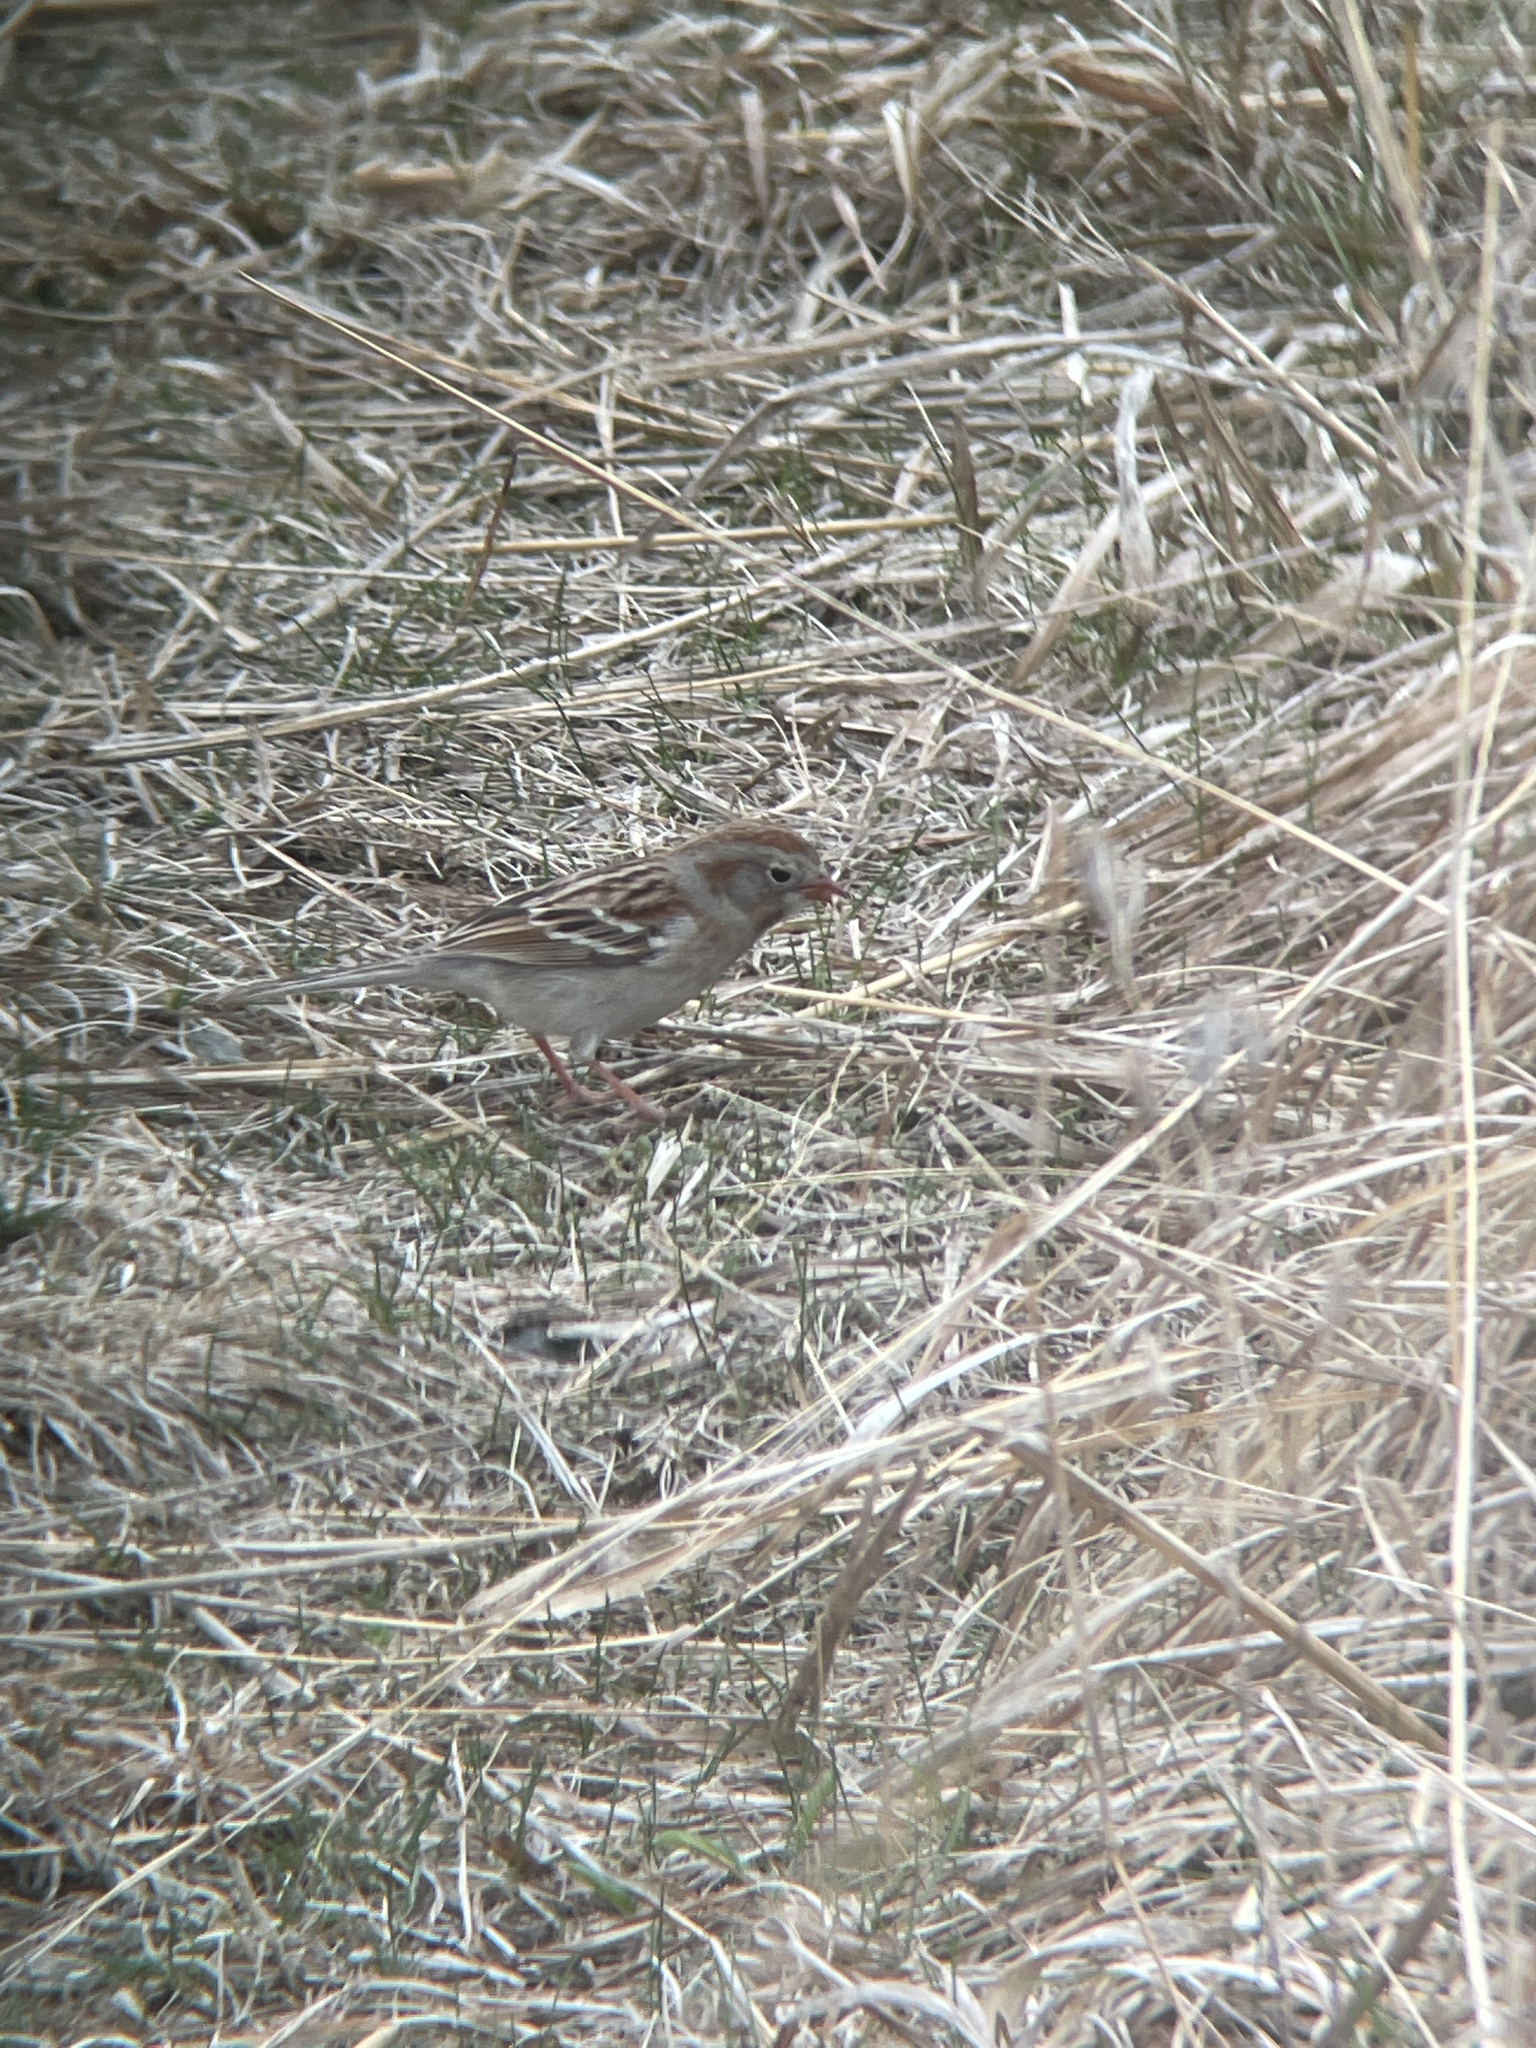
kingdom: Animalia
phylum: Chordata
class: Aves
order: Passeriformes
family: Passerellidae
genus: Spizella
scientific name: Spizella pusilla
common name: Field sparrow
